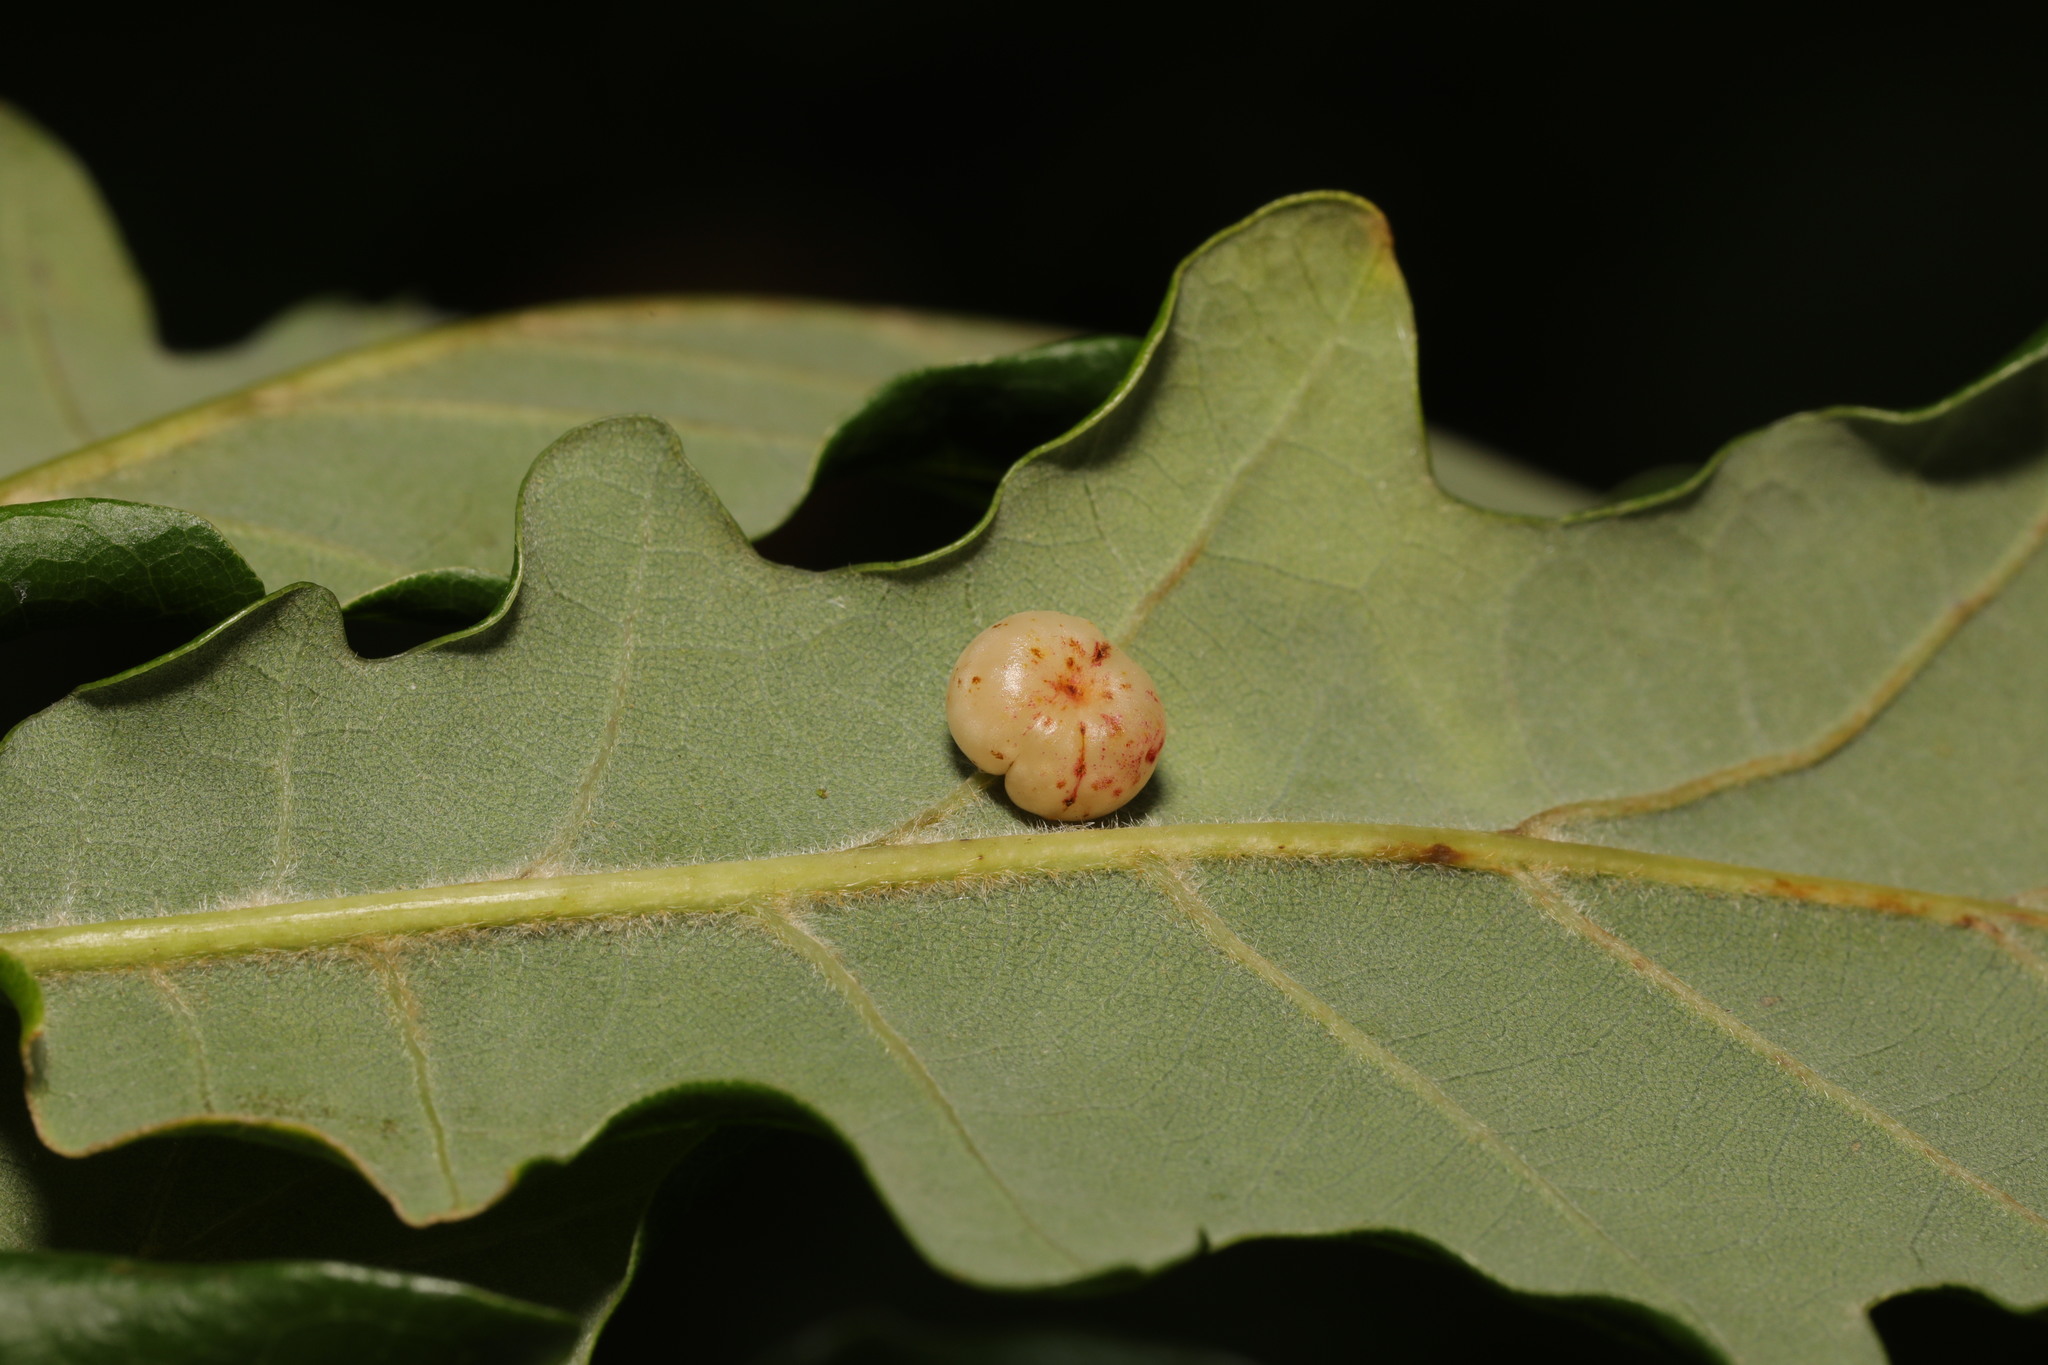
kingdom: Animalia
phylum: Arthropoda
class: Insecta
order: Hymenoptera
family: Cynipidae
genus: Cynips
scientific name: Cynips disticha
